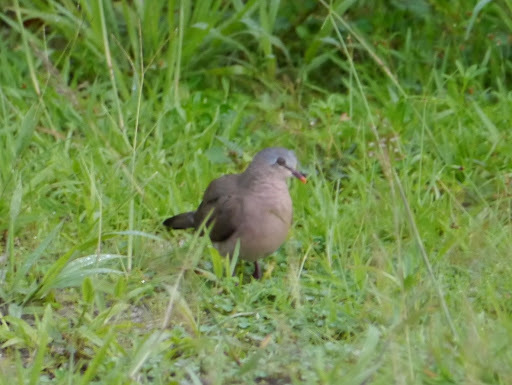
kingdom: Animalia
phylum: Chordata
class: Aves
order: Columbiformes
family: Columbidae
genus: Turtur
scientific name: Turtur afer
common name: Blue-spotted wood dove
